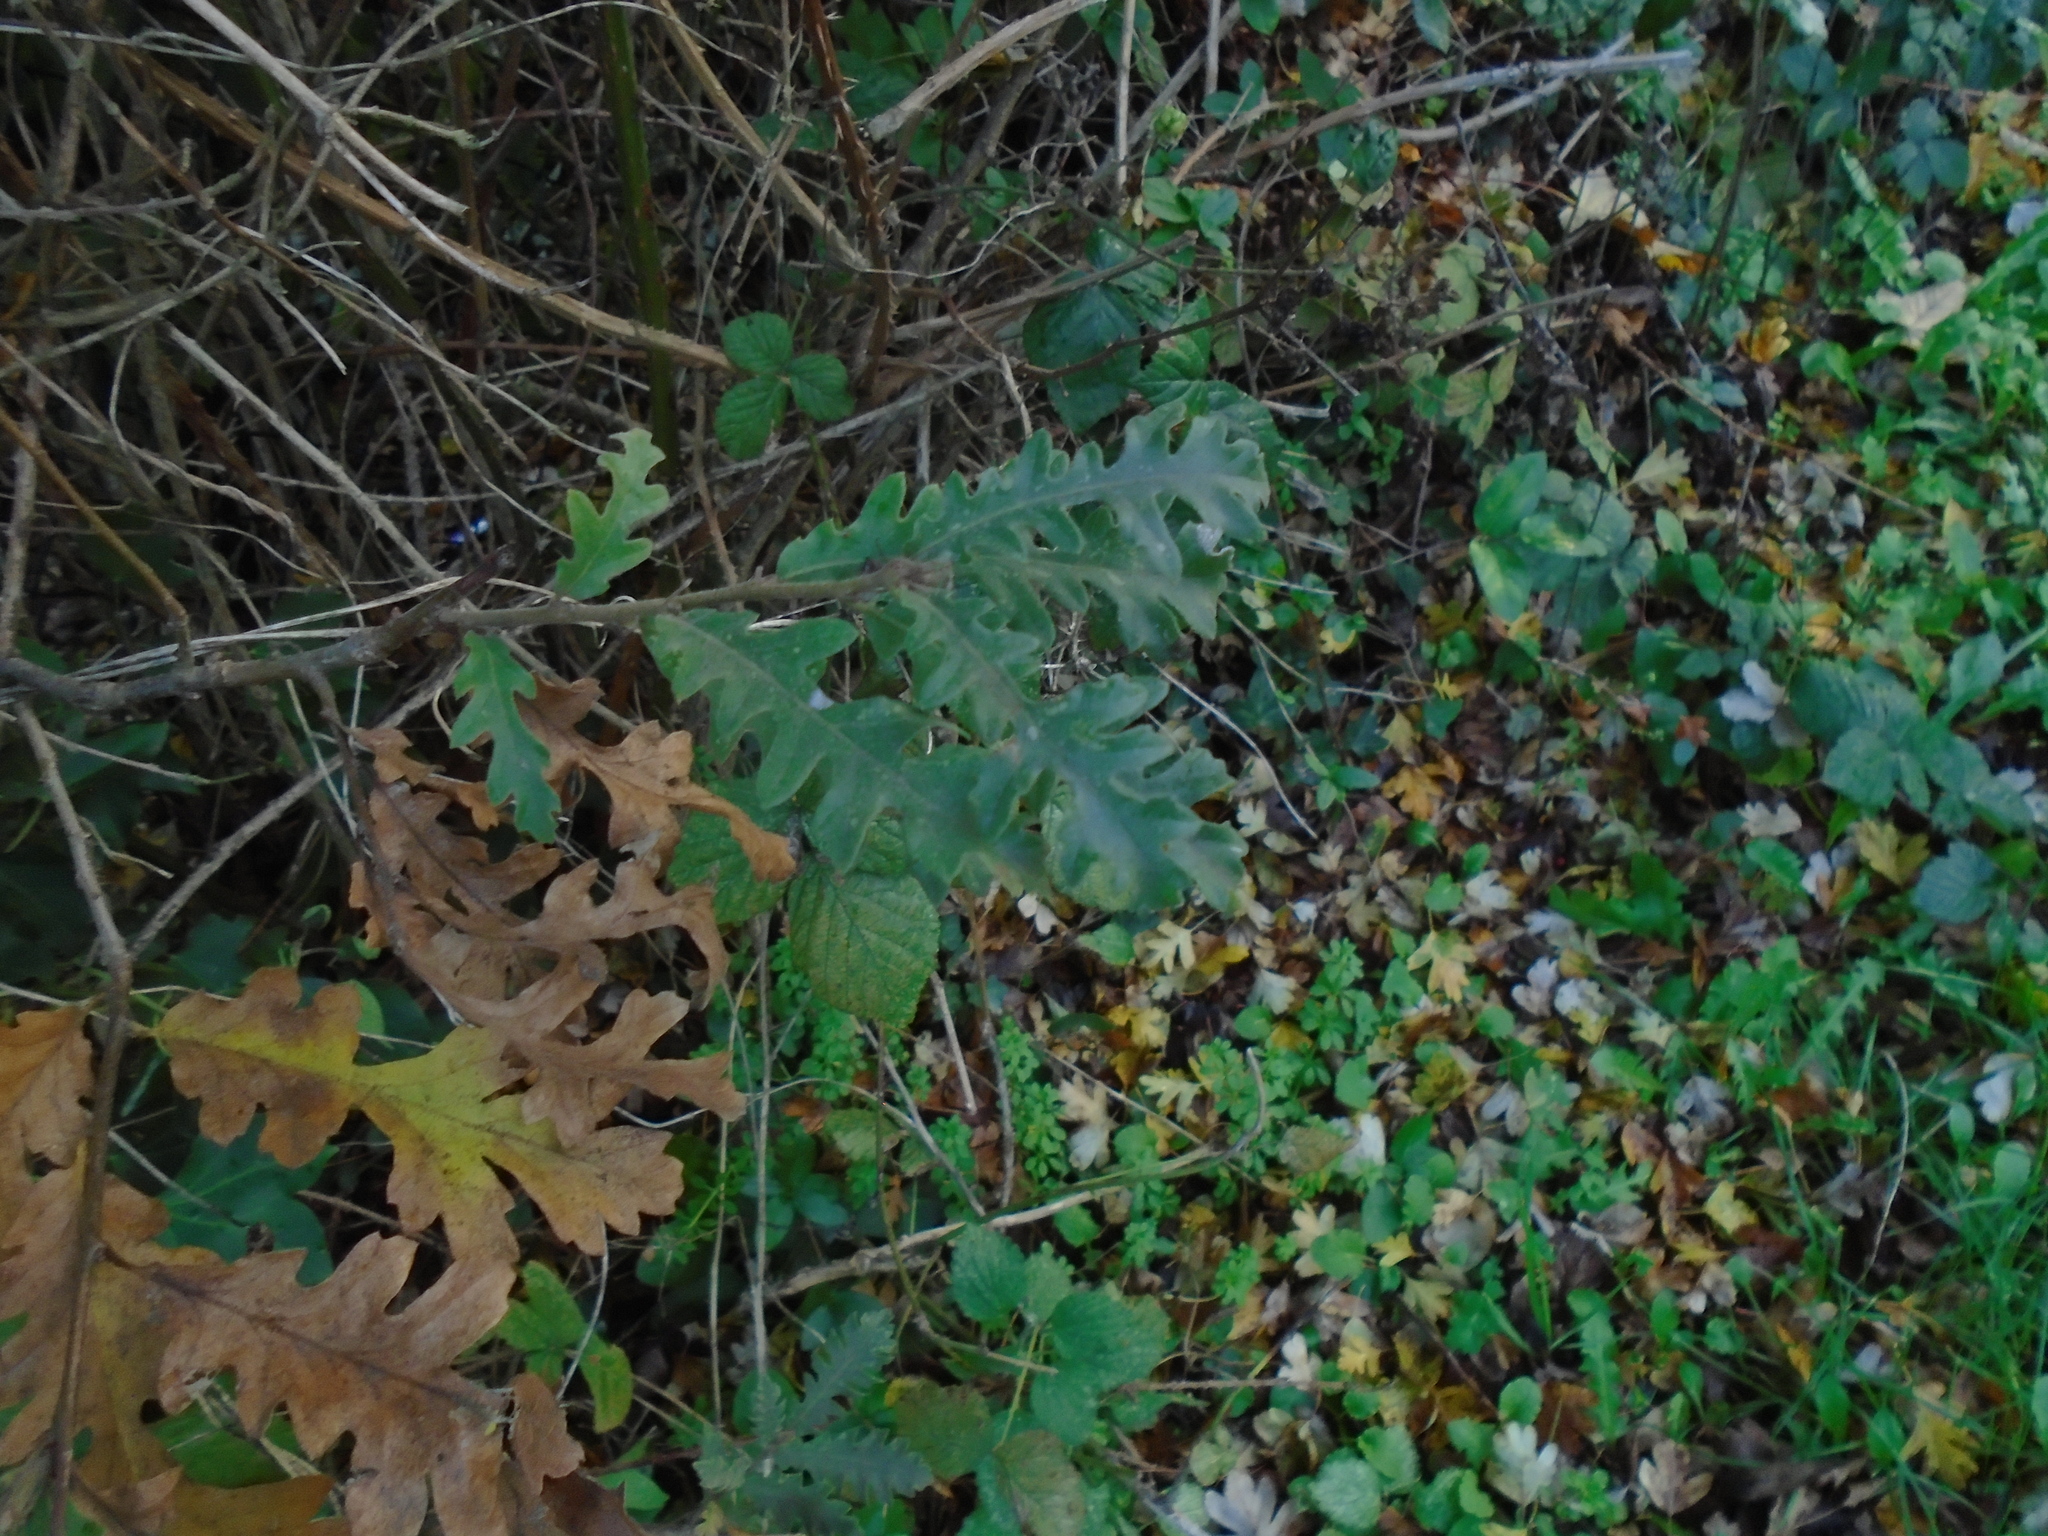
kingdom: Plantae
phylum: Tracheophyta
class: Magnoliopsida
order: Fagales
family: Fagaceae
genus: Quercus
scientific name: Quercus cerris
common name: Turkey oak
